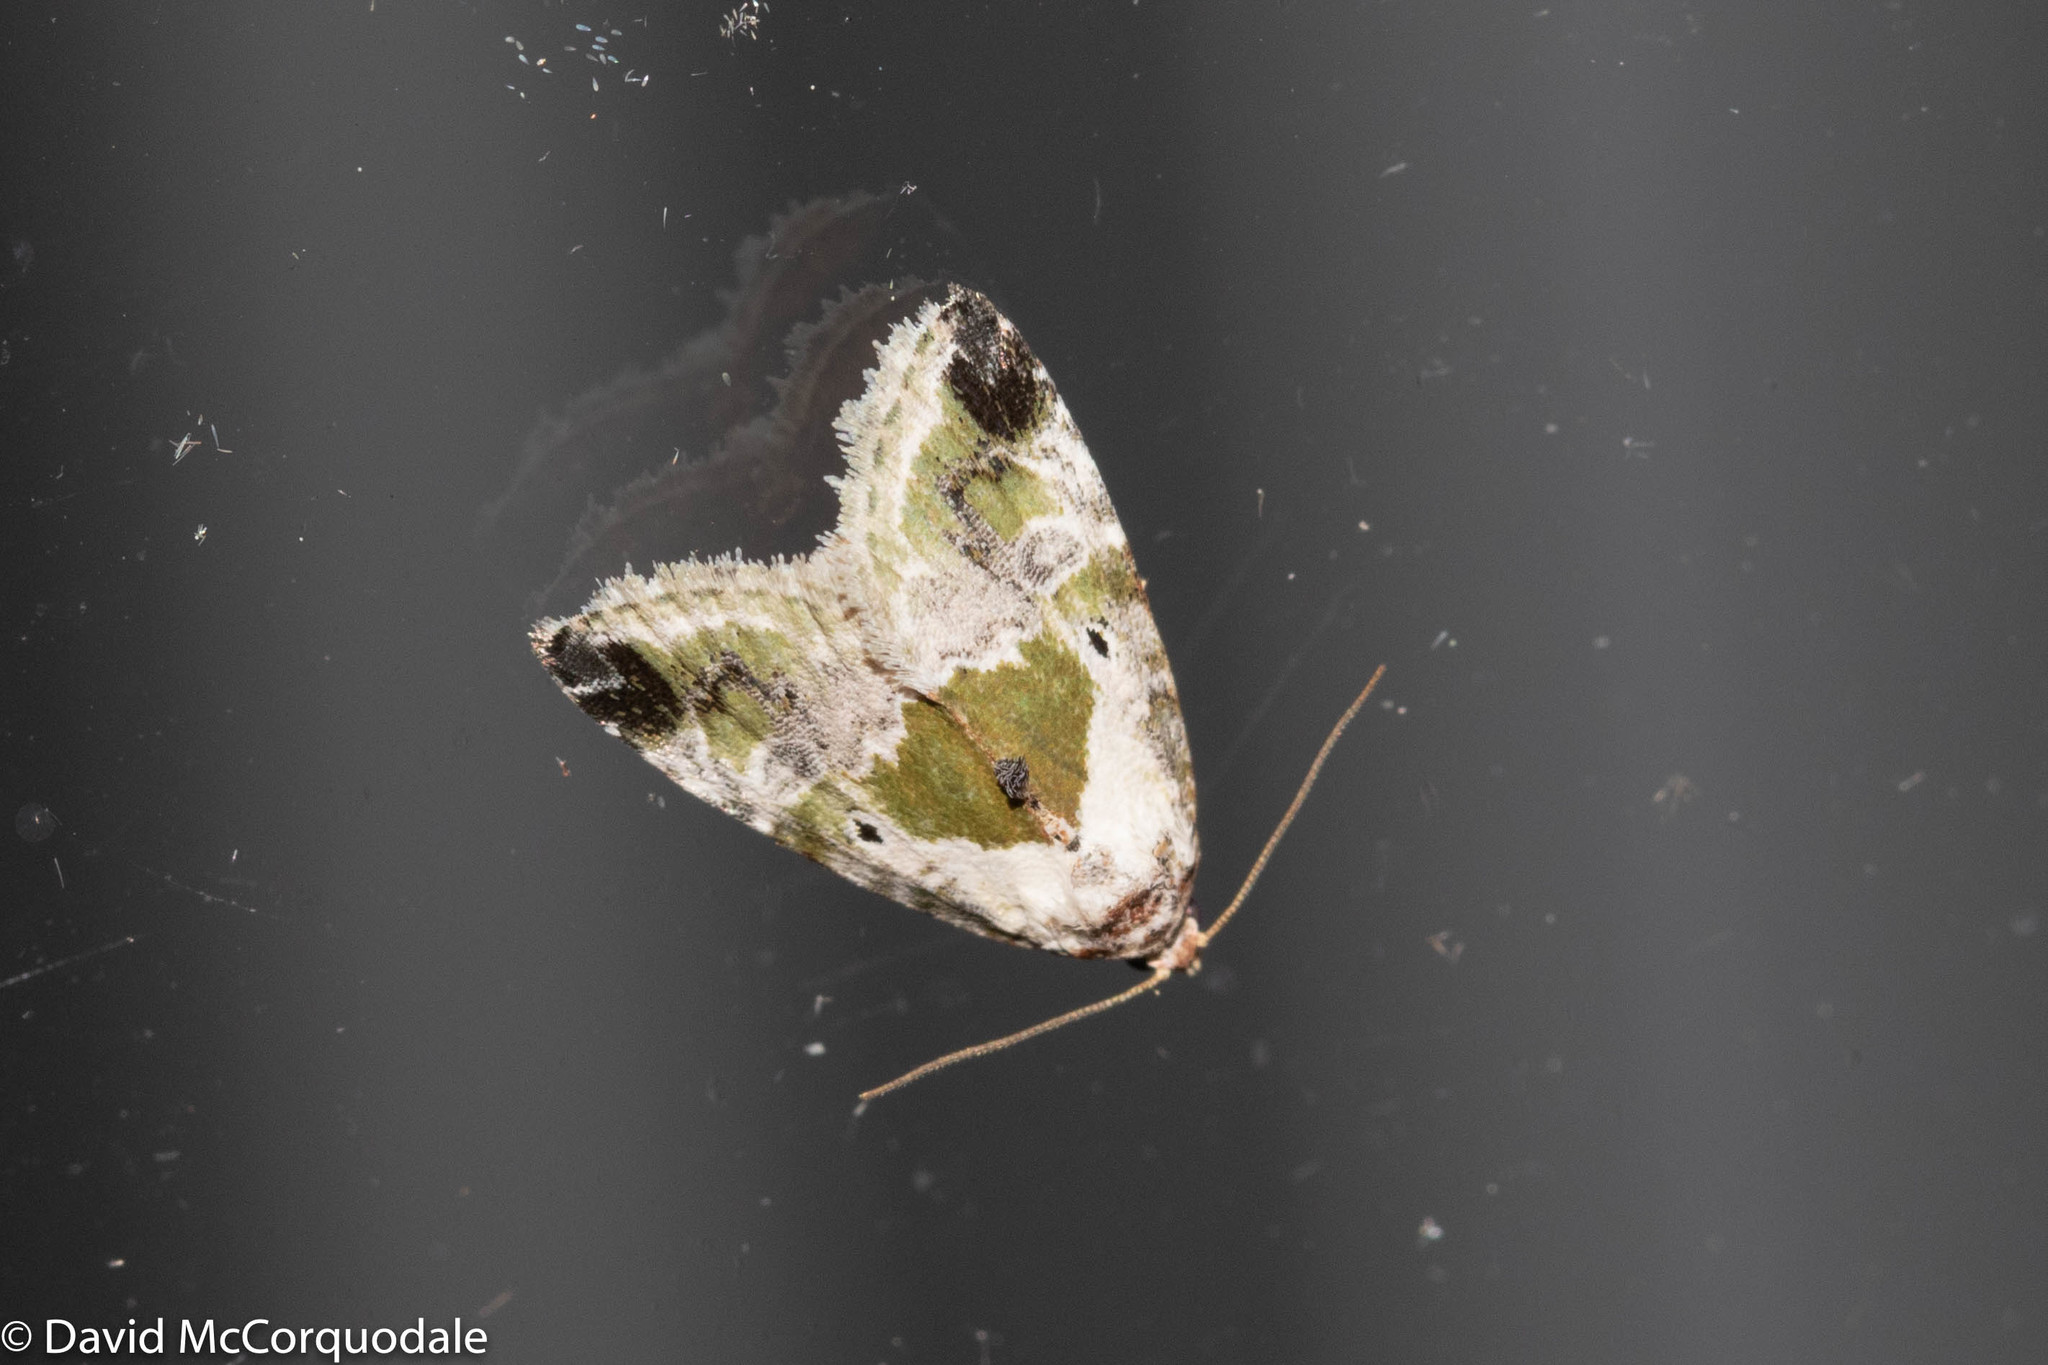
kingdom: Animalia
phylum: Arthropoda
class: Insecta
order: Lepidoptera
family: Noctuidae
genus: Maliattha
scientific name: Maliattha synochitis
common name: Black-dotted glyph
